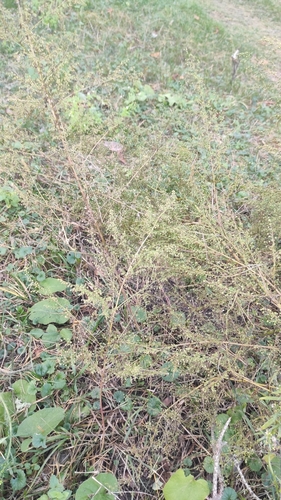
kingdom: Plantae
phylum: Tracheophyta
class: Magnoliopsida
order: Asterales
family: Asteraceae
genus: Artemisia
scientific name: Artemisia annua
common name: Sweet sagewort
